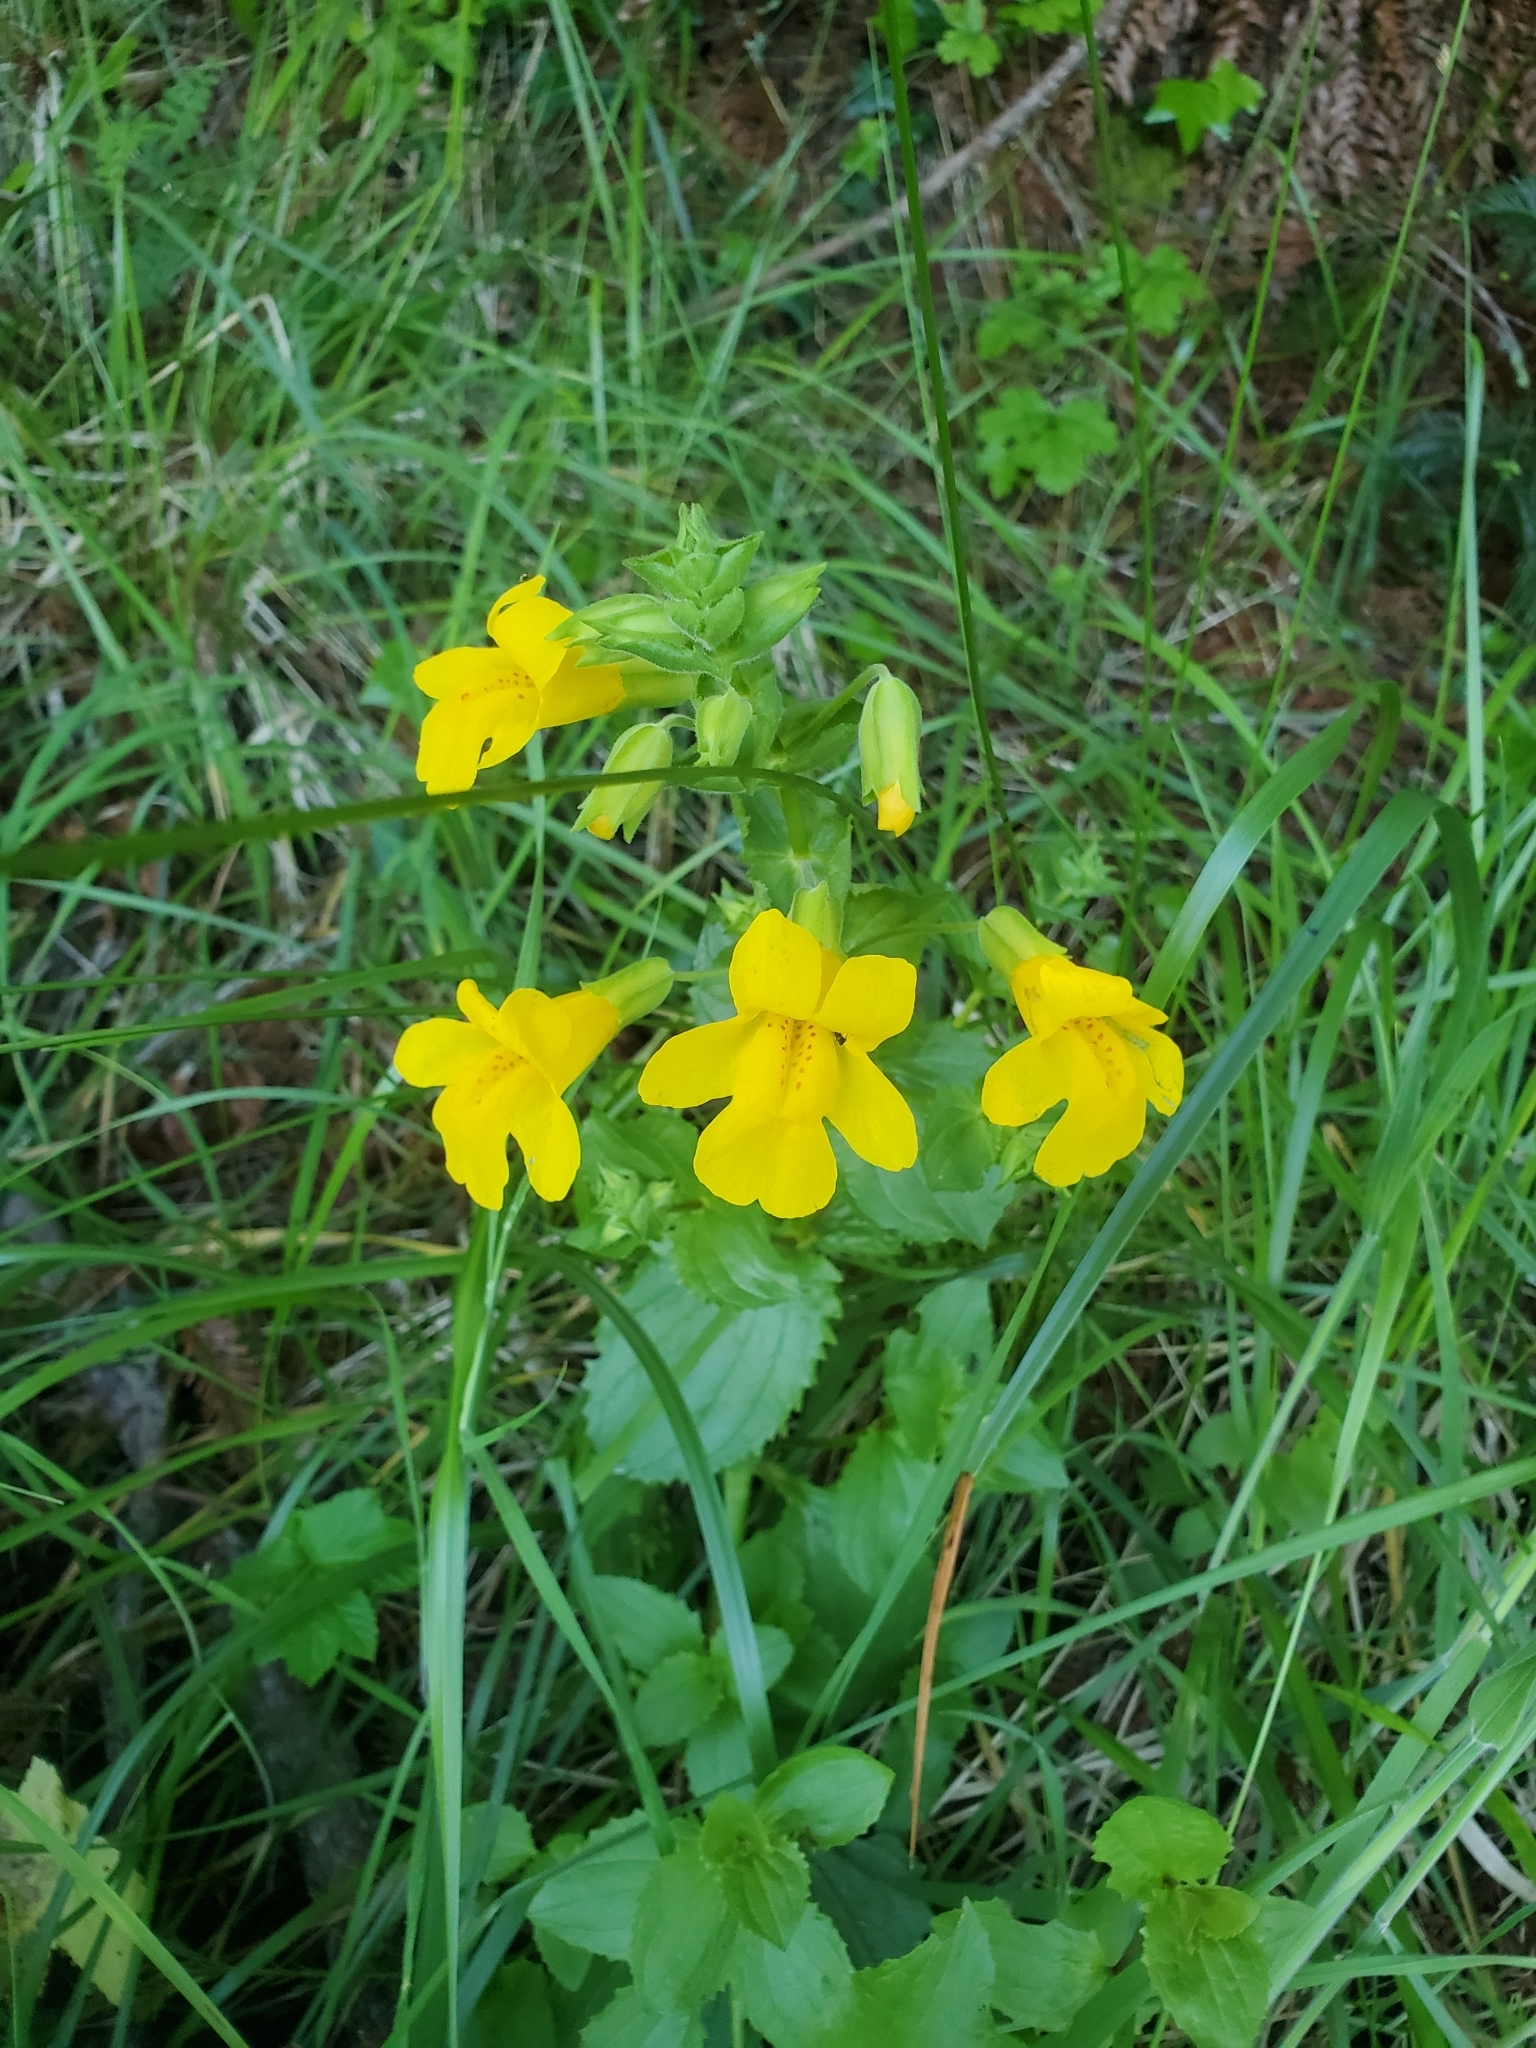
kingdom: Plantae
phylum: Tracheophyta
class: Magnoliopsida
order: Lamiales
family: Phrymaceae
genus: Erythranthe
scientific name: Erythranthe guttata
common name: Monkeyflower
